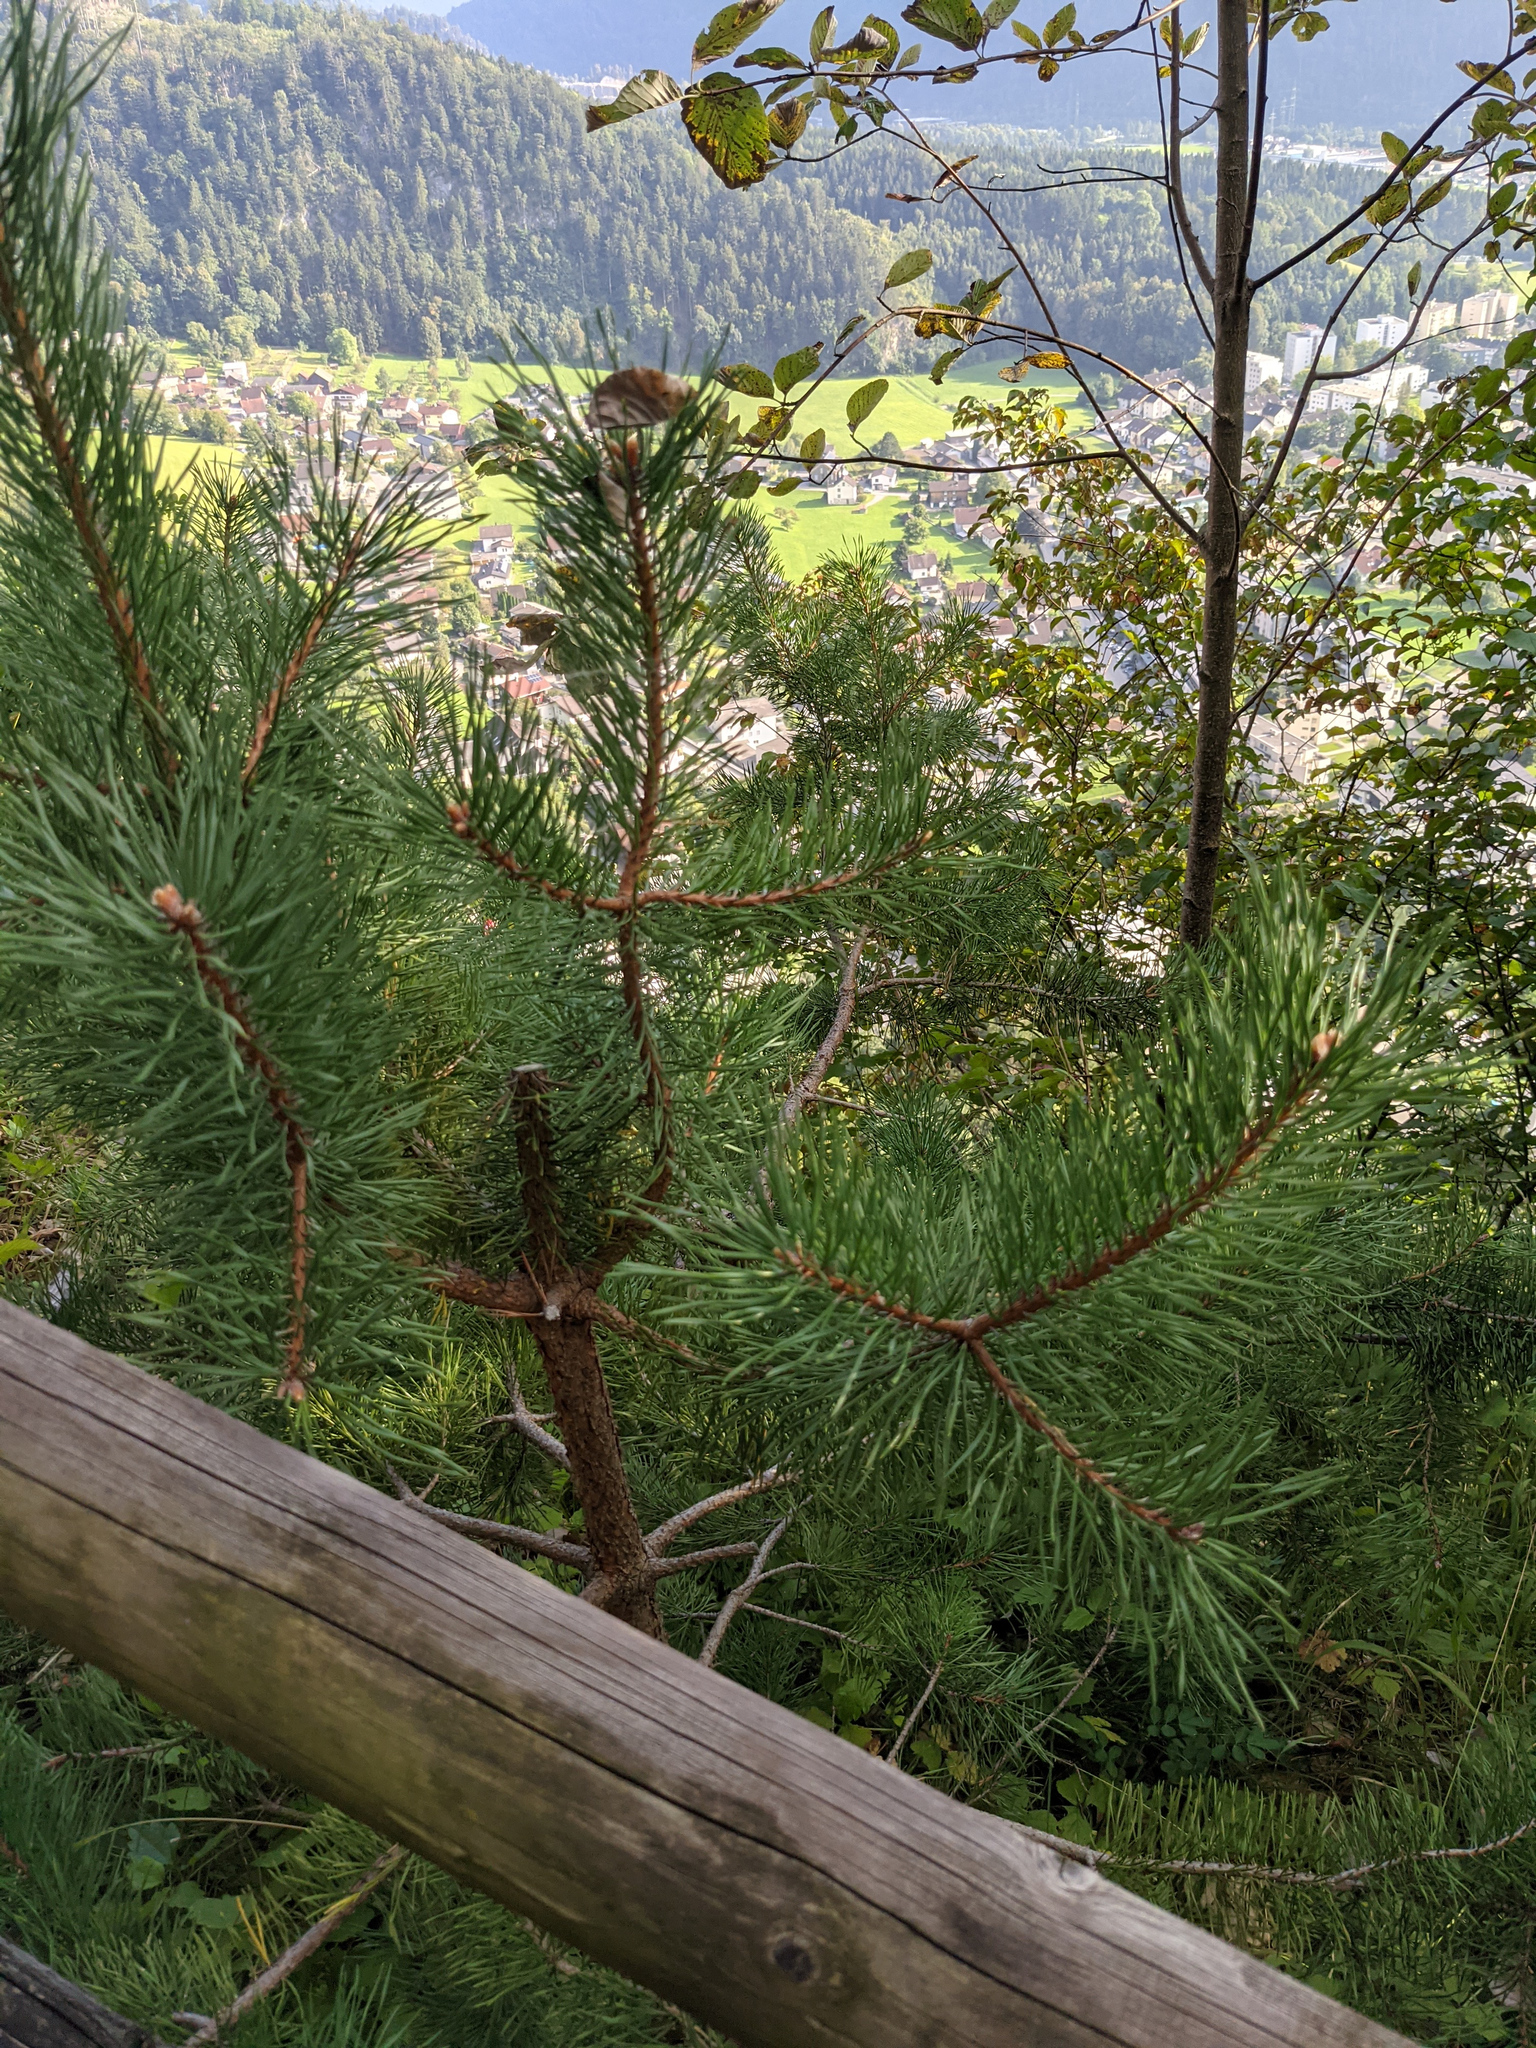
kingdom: Plantae
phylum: Tracheophyta
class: Pinopsida
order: Pinales
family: Pinaceae
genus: Pinus
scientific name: Pinus sylvestris
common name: Scots pine
